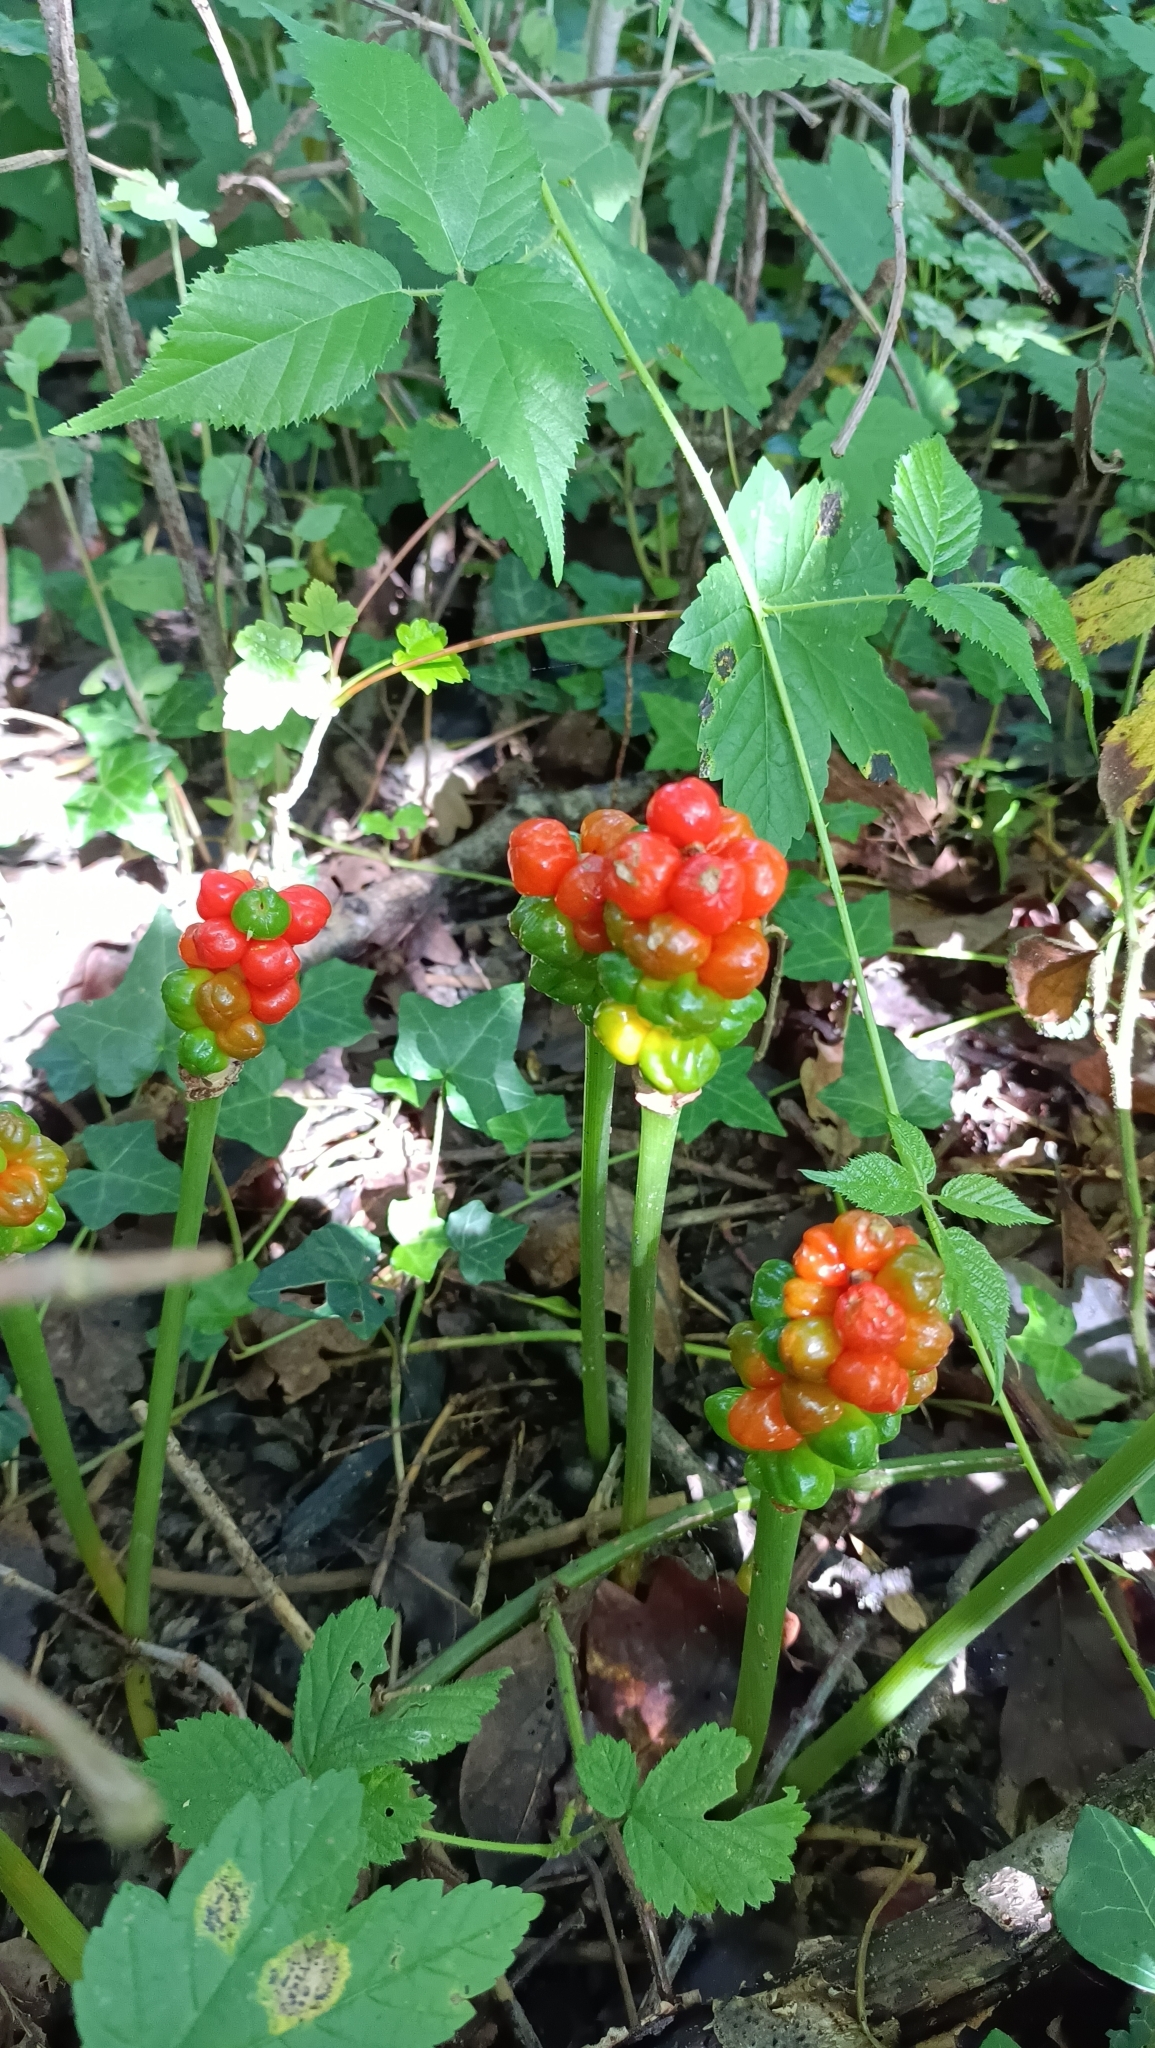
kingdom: Plantae
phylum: Tracheophyta
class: Liliopsida
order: Alismatales
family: Araceae
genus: Arum
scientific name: Arum maculatum
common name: Lords-and-ladies
